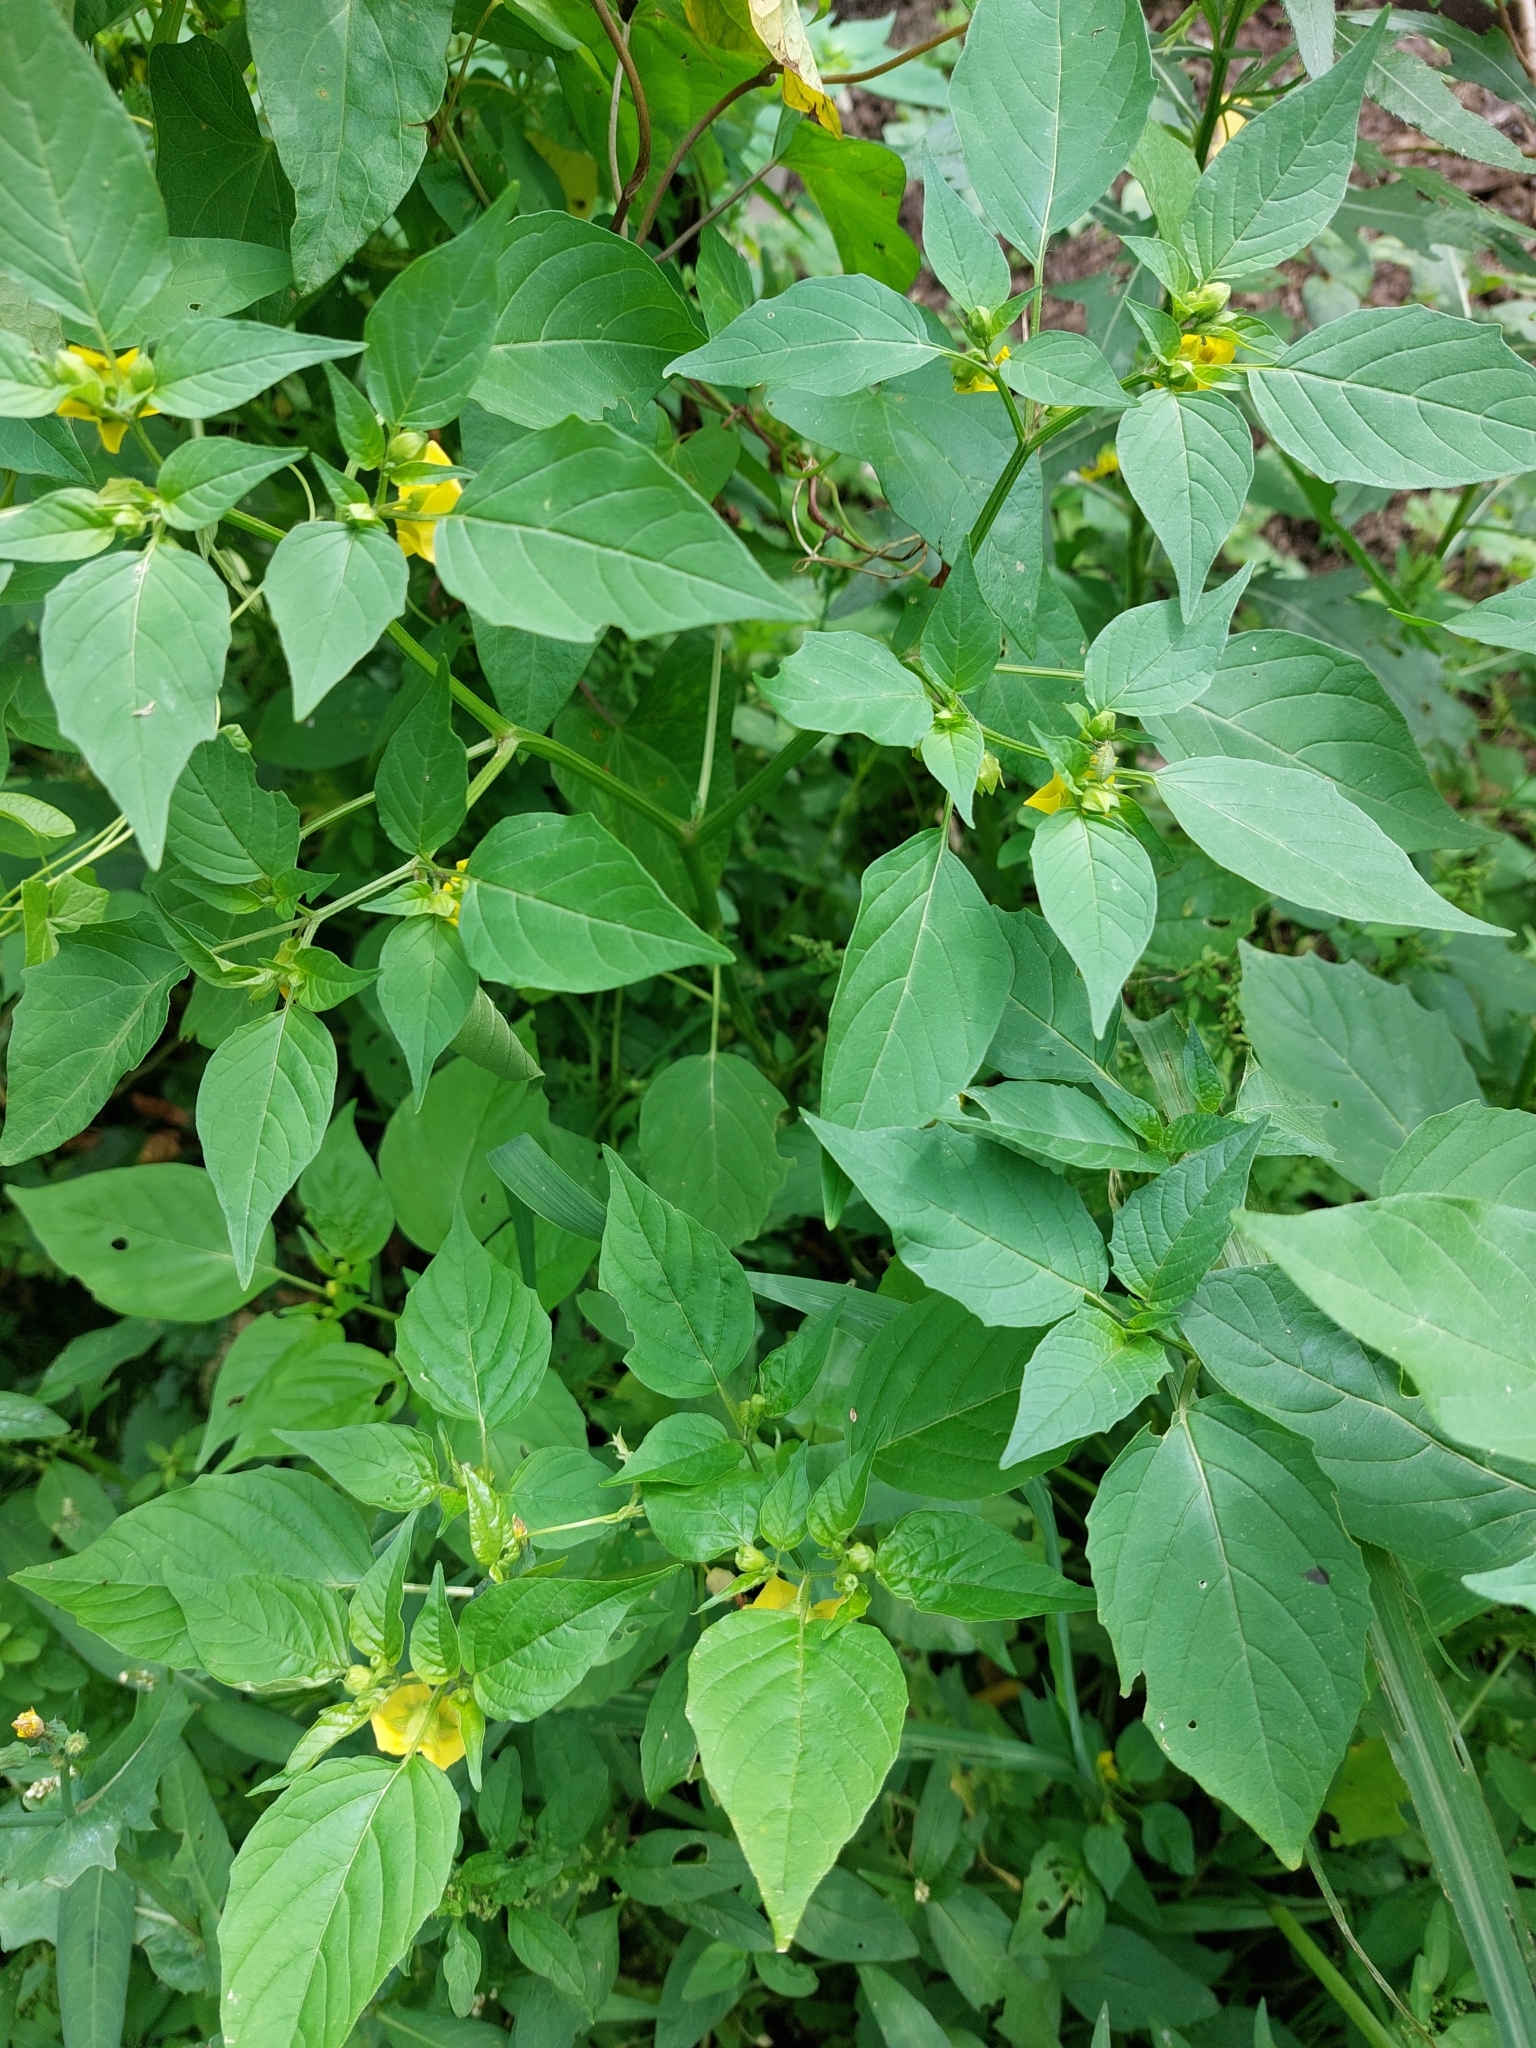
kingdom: Plantae
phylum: Tracheophyta
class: Magnoliopsida
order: Solanales
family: Solanaceae
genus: Physalis
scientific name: Physalis philadelphica
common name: Husk-tomato
